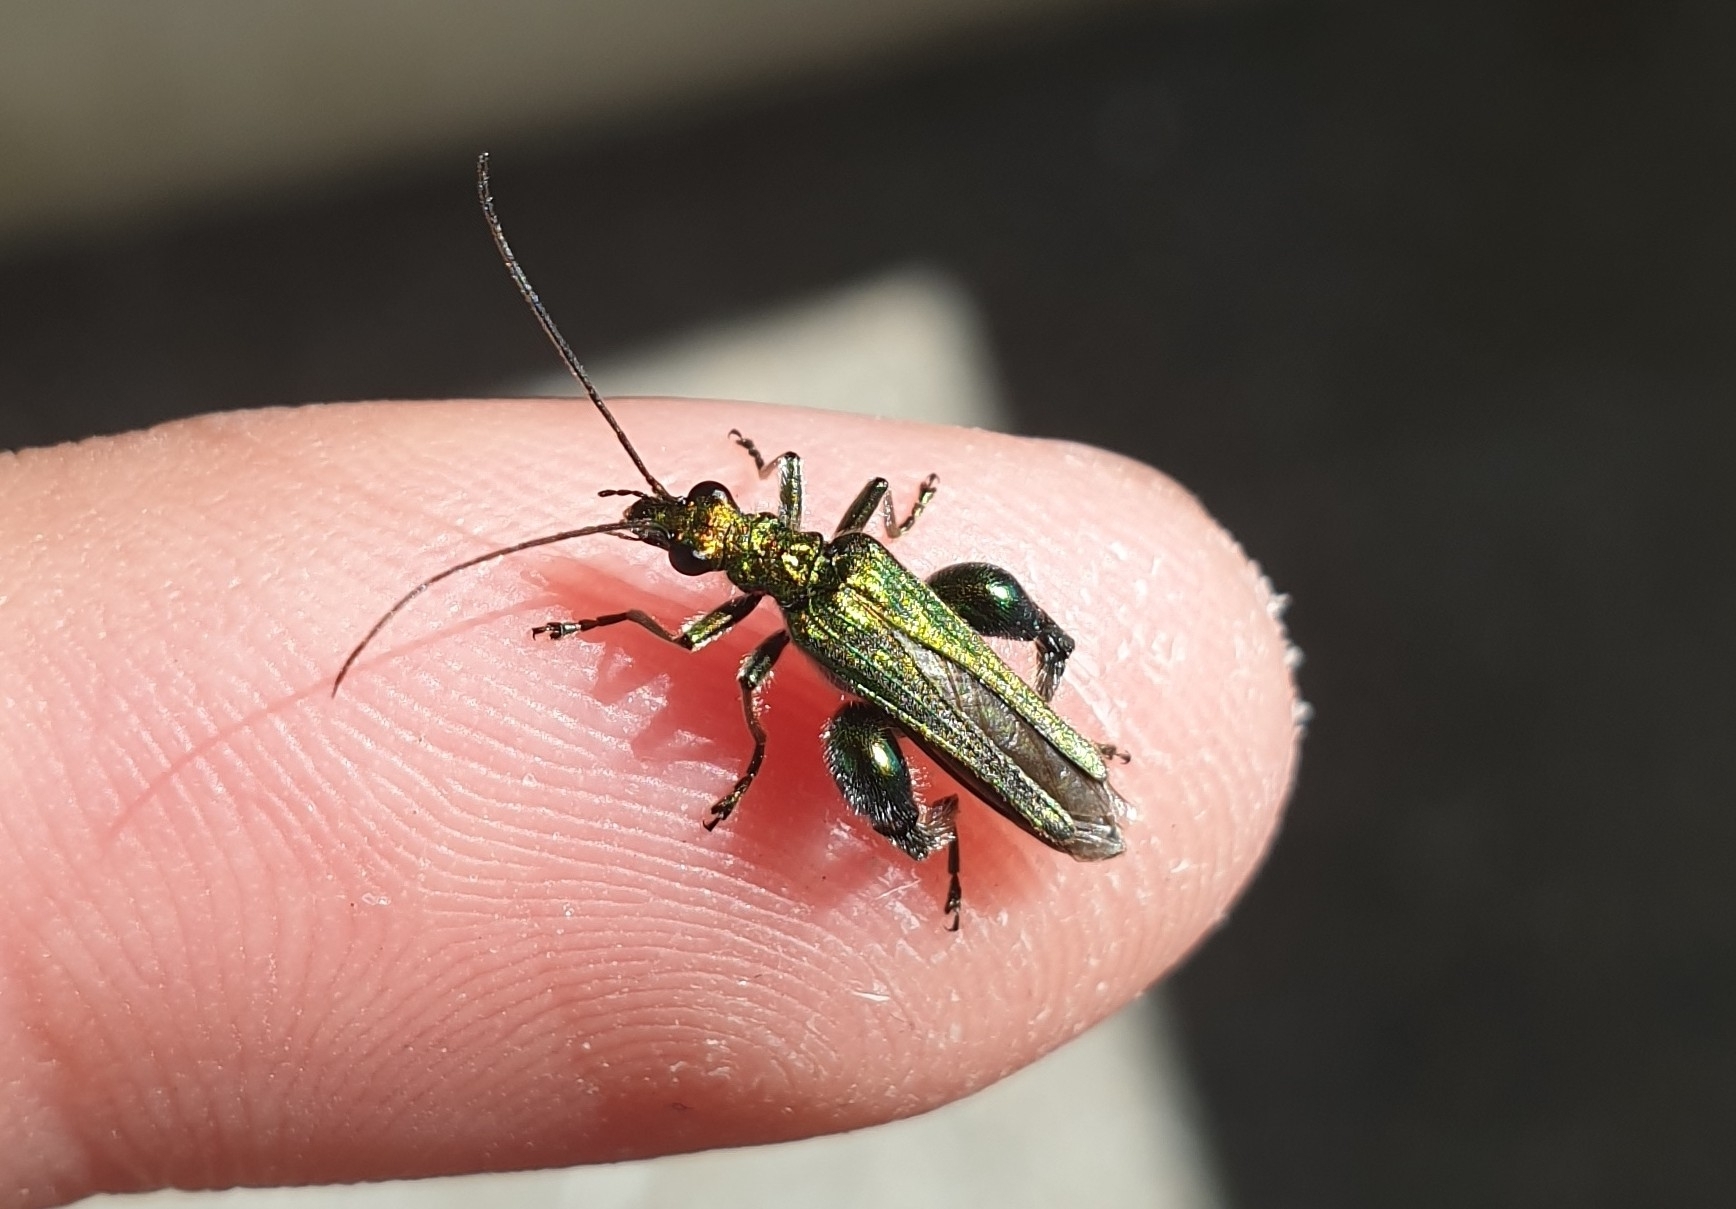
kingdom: Animalia
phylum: Arthropoda
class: Insecta
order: Coleoptera
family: Oedemeridae
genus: Oedemera
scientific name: Oedemera nobilis
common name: Swollen-thighed beetle
